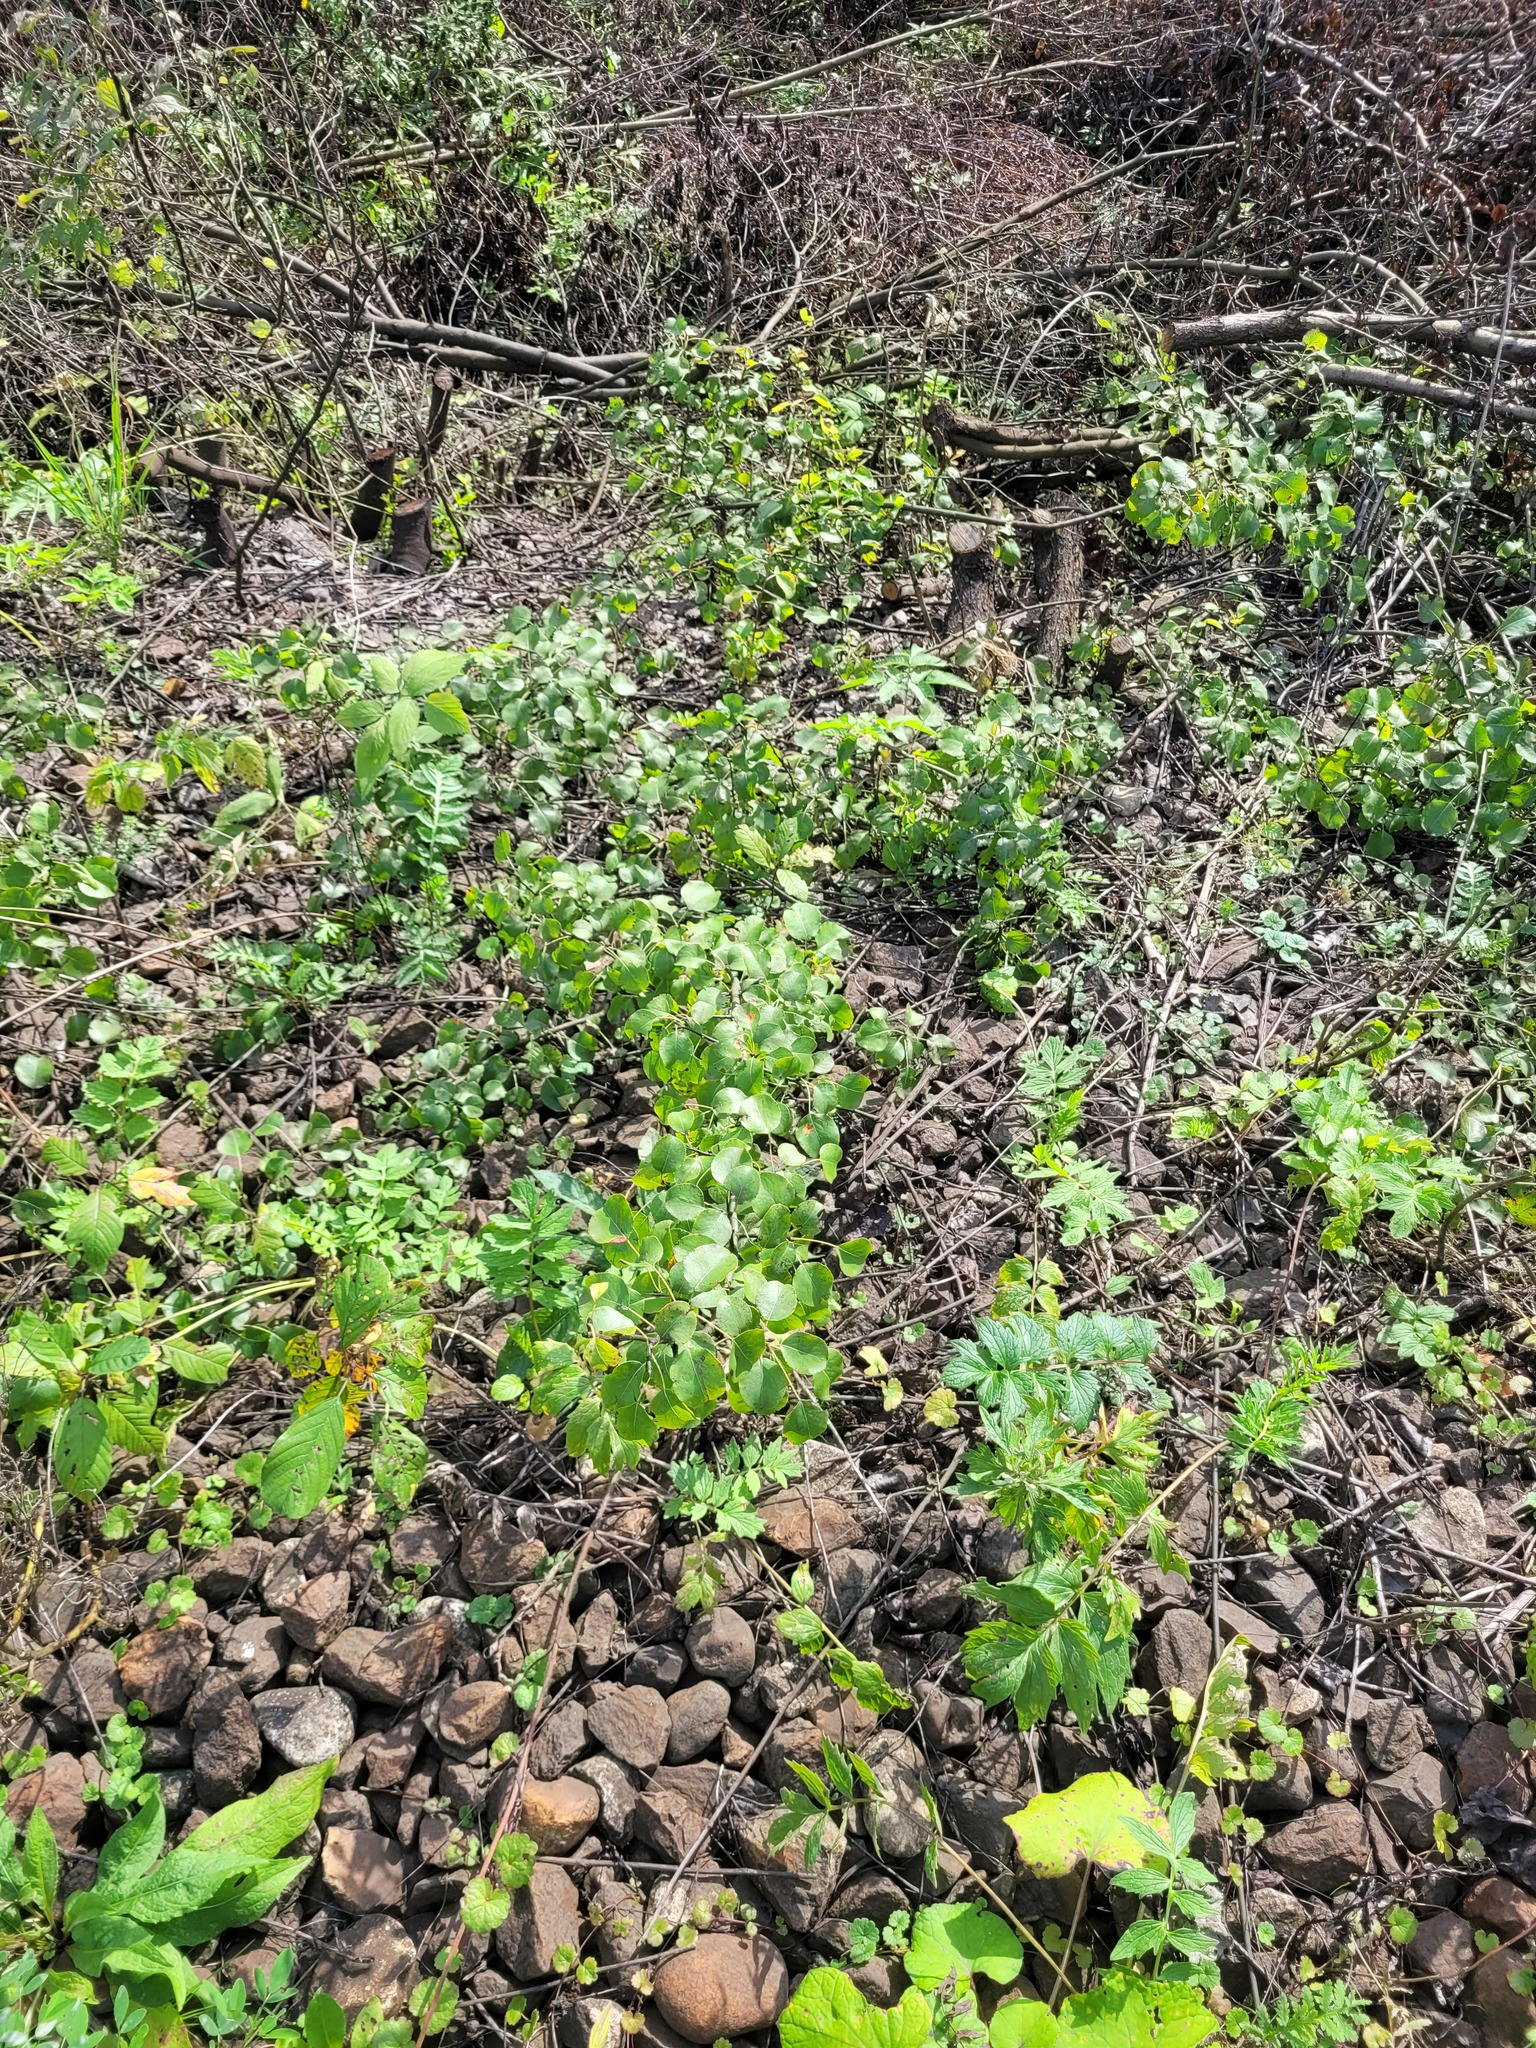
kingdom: Plantae
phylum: Tracheophyta
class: Magnoliopsida
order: Rosales
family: Rosaceae
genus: Pyrus
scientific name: Pyrus communis
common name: Pear
